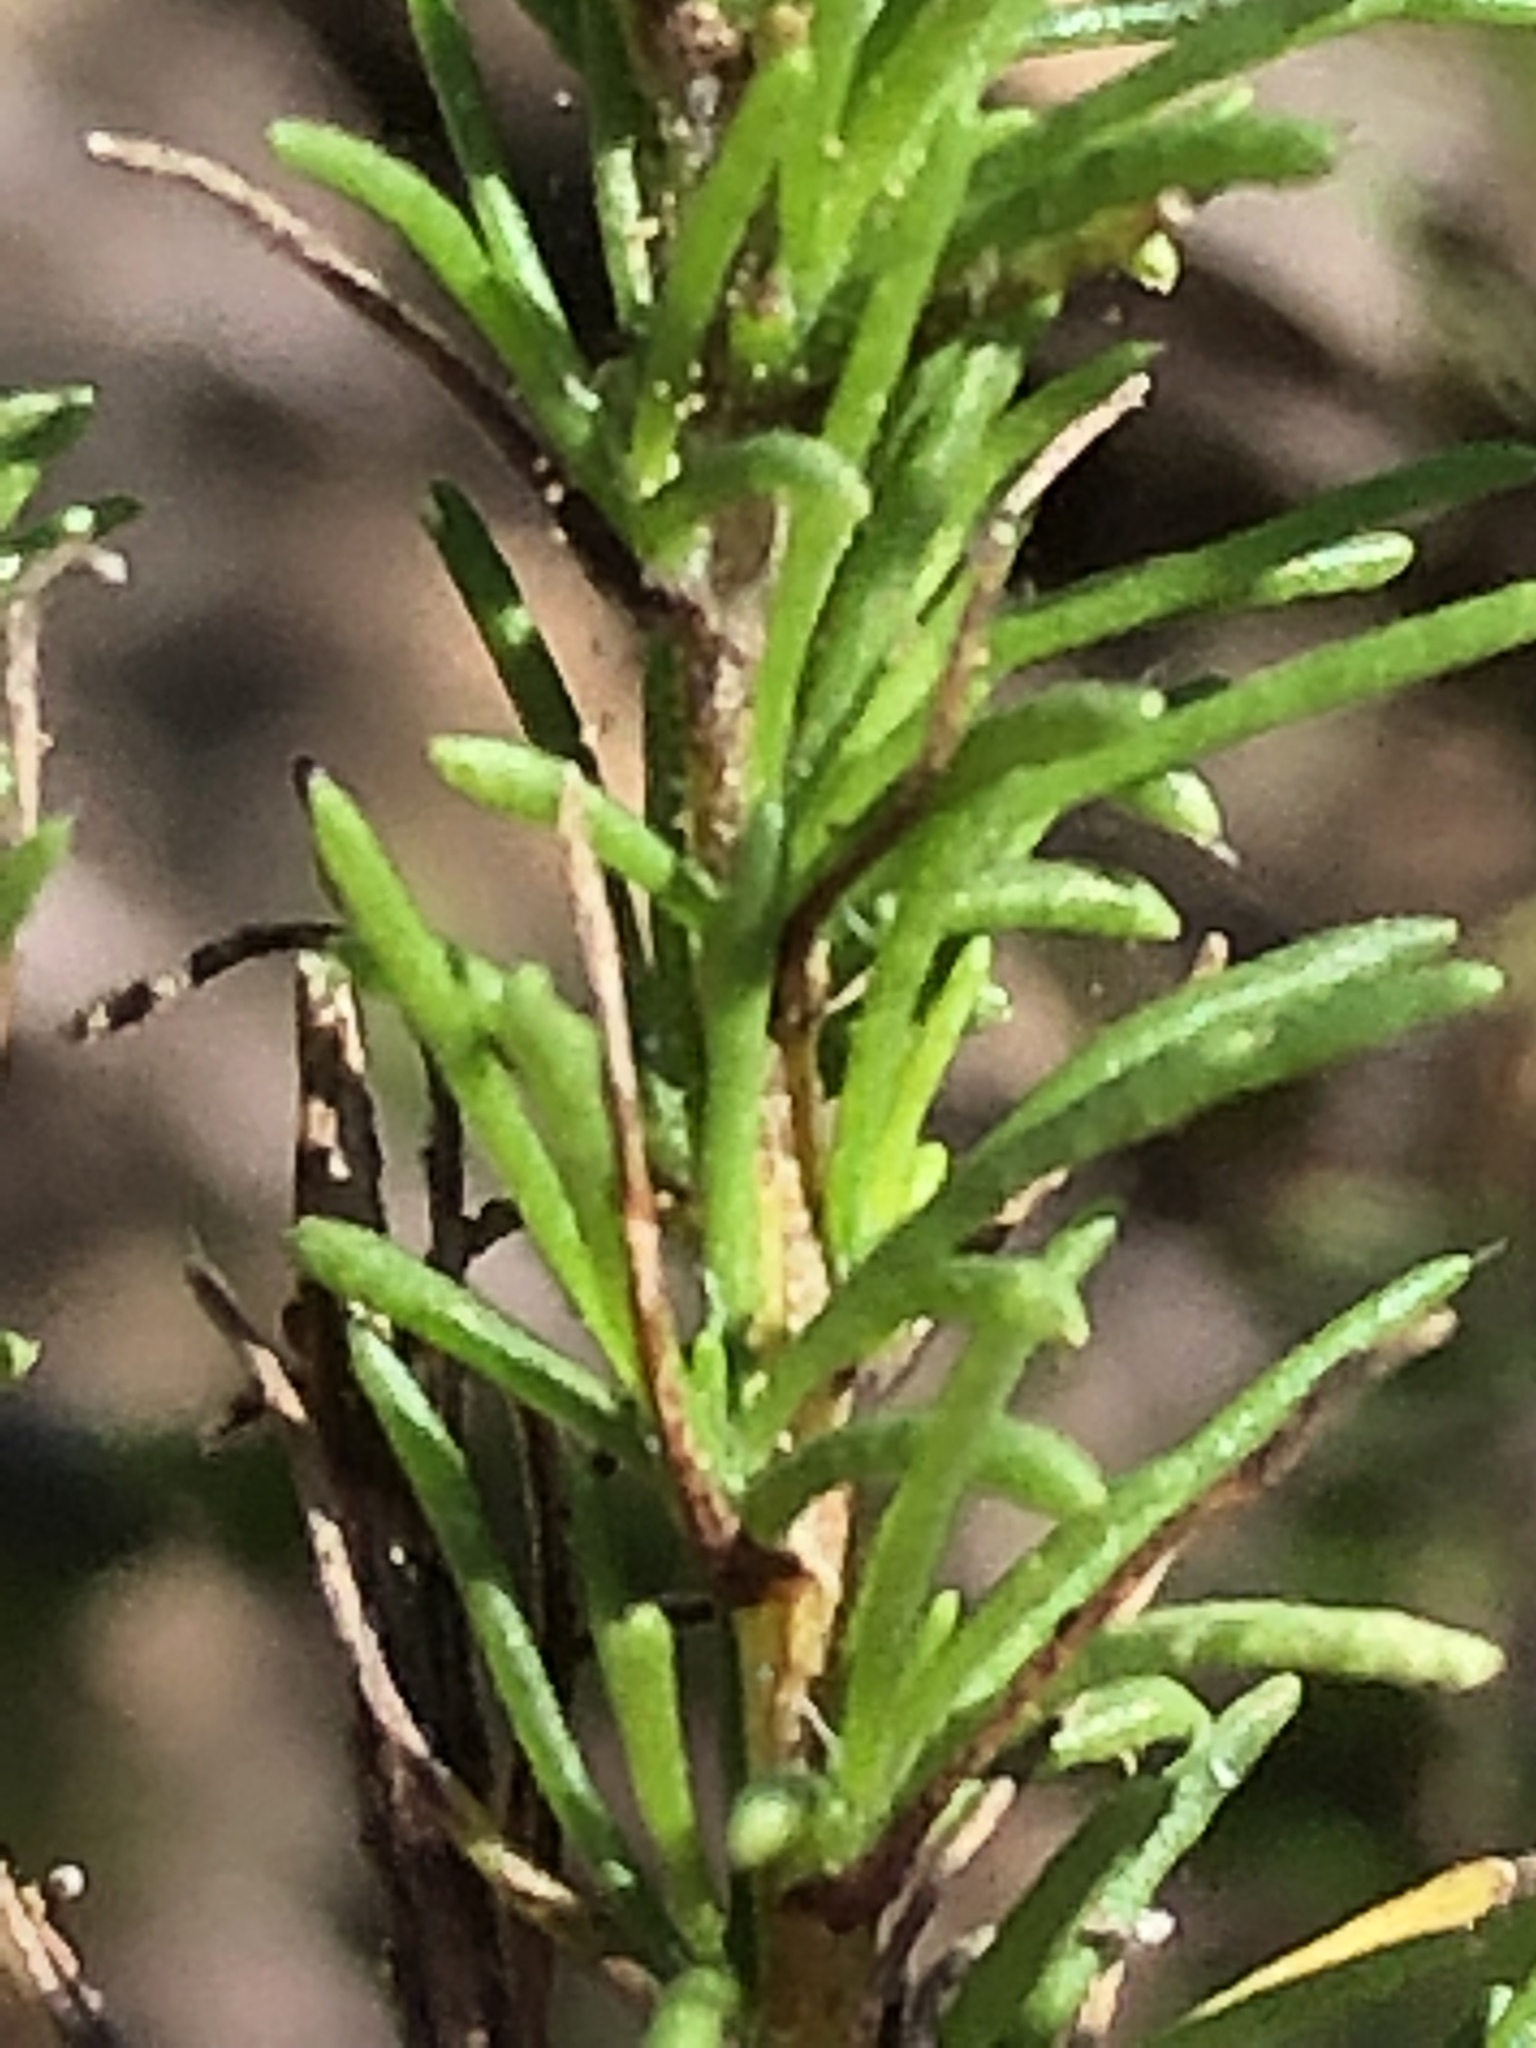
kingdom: Plantae
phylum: Tracheophyta
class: Magnoliopsida
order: Asterales
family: Asteraceae
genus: Felicia
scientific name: Felicia muricata
